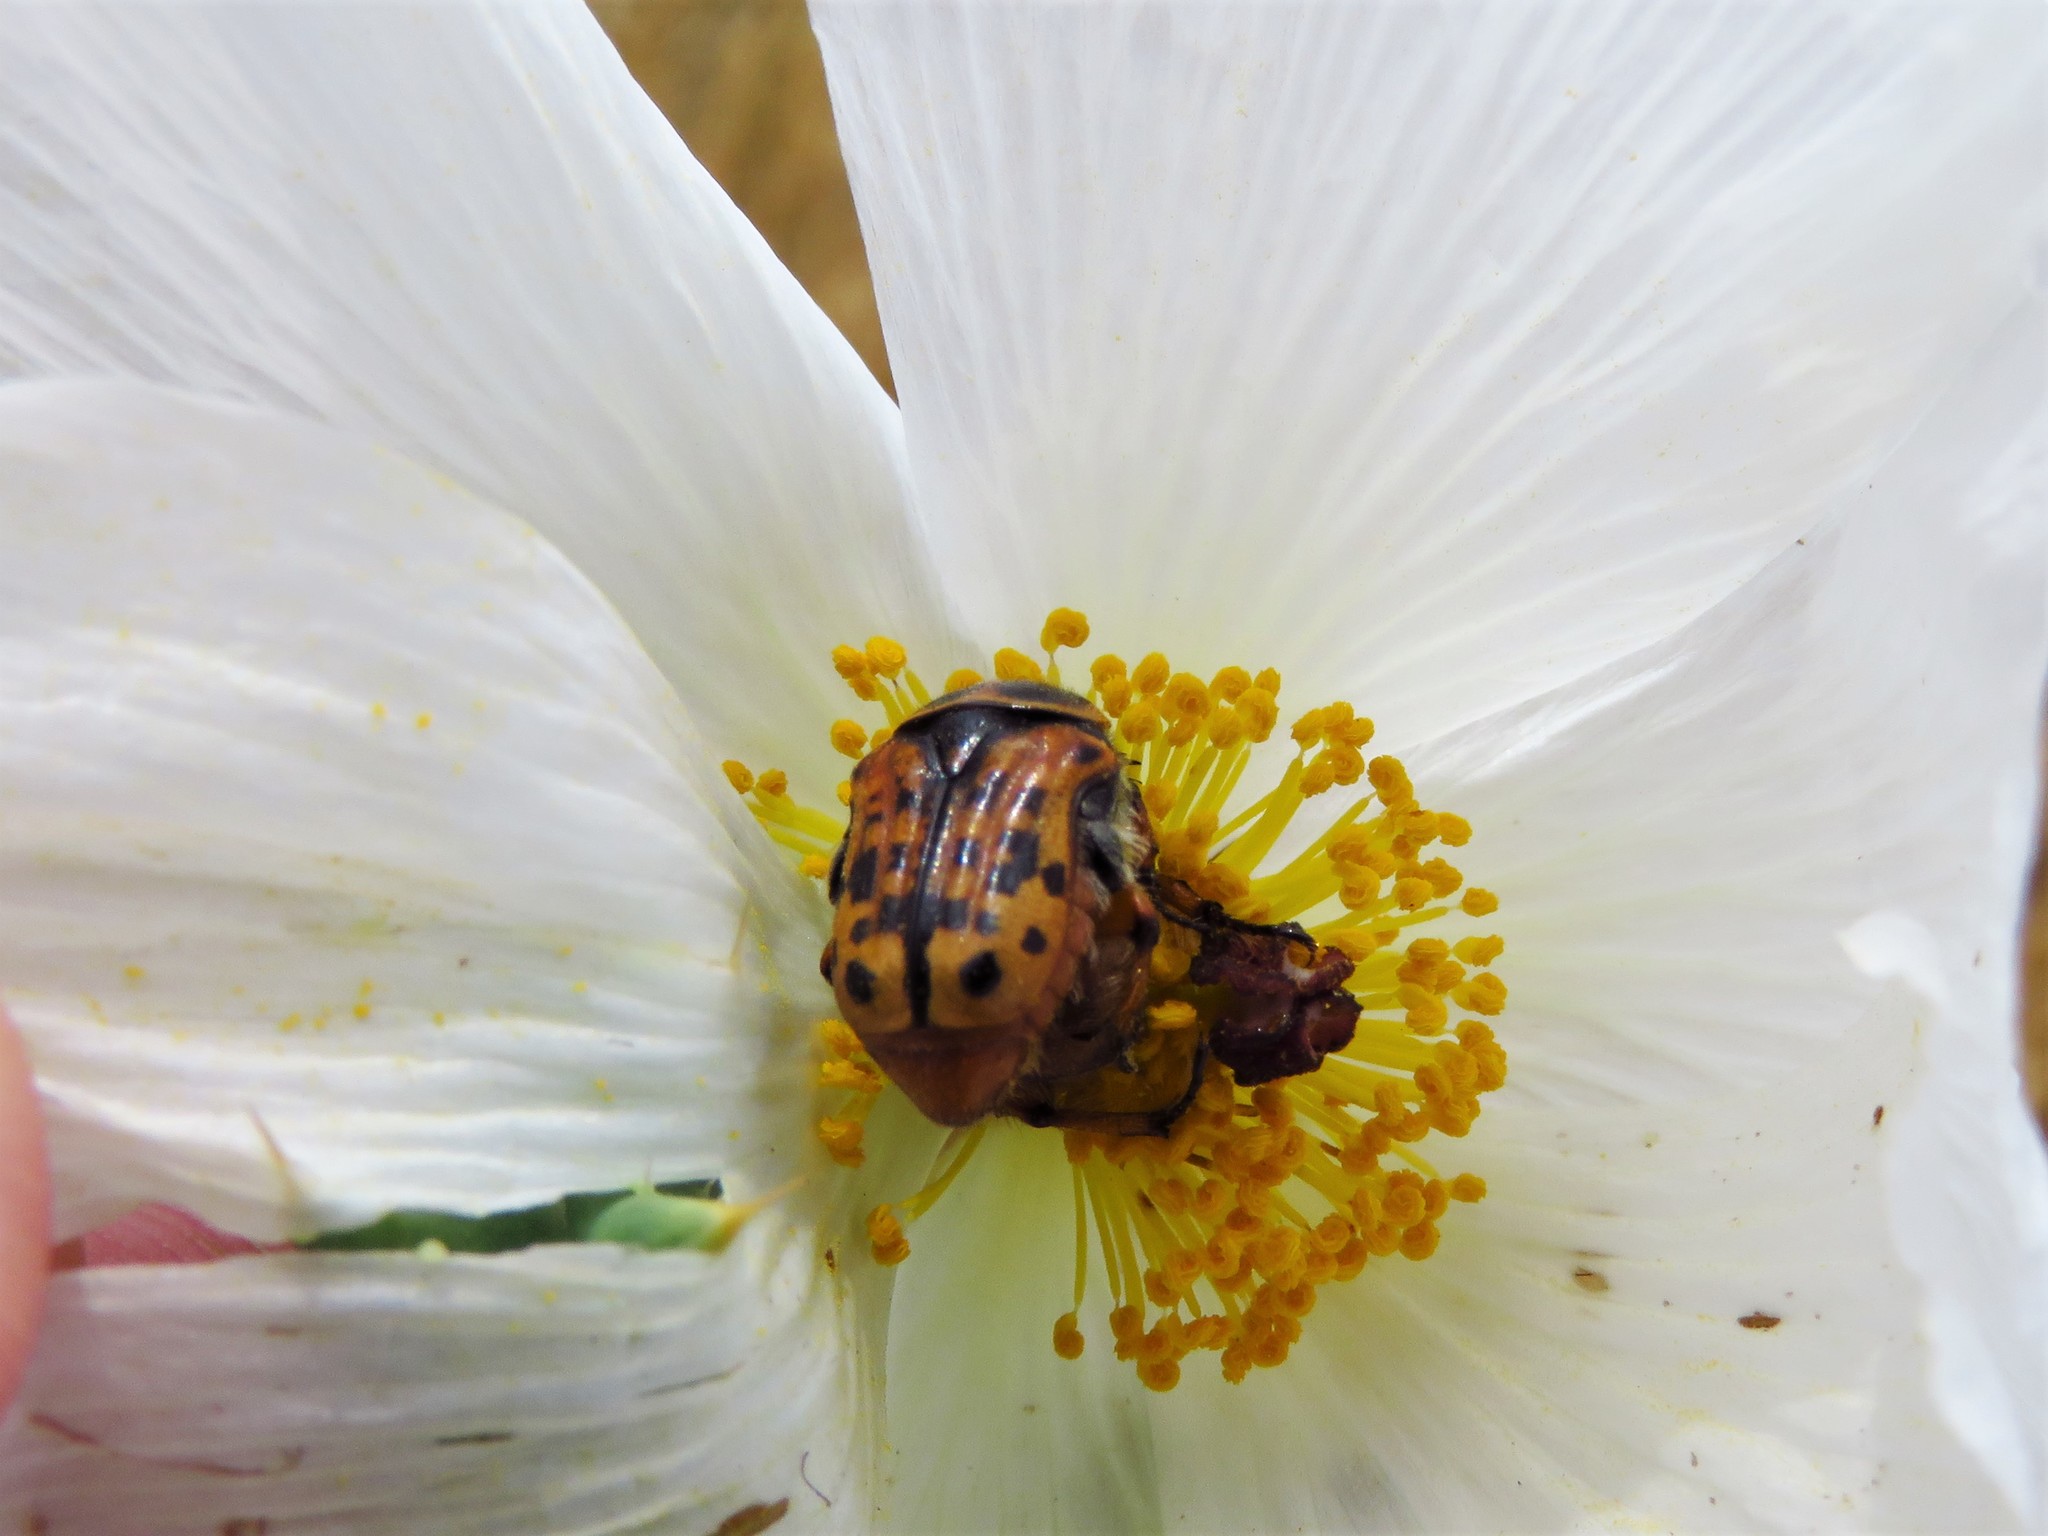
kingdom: Animalia
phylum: Arthropoda
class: Insecta
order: Coleoptera
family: Scarabaeidae
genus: Euphoria
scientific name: Euphoria kernii
